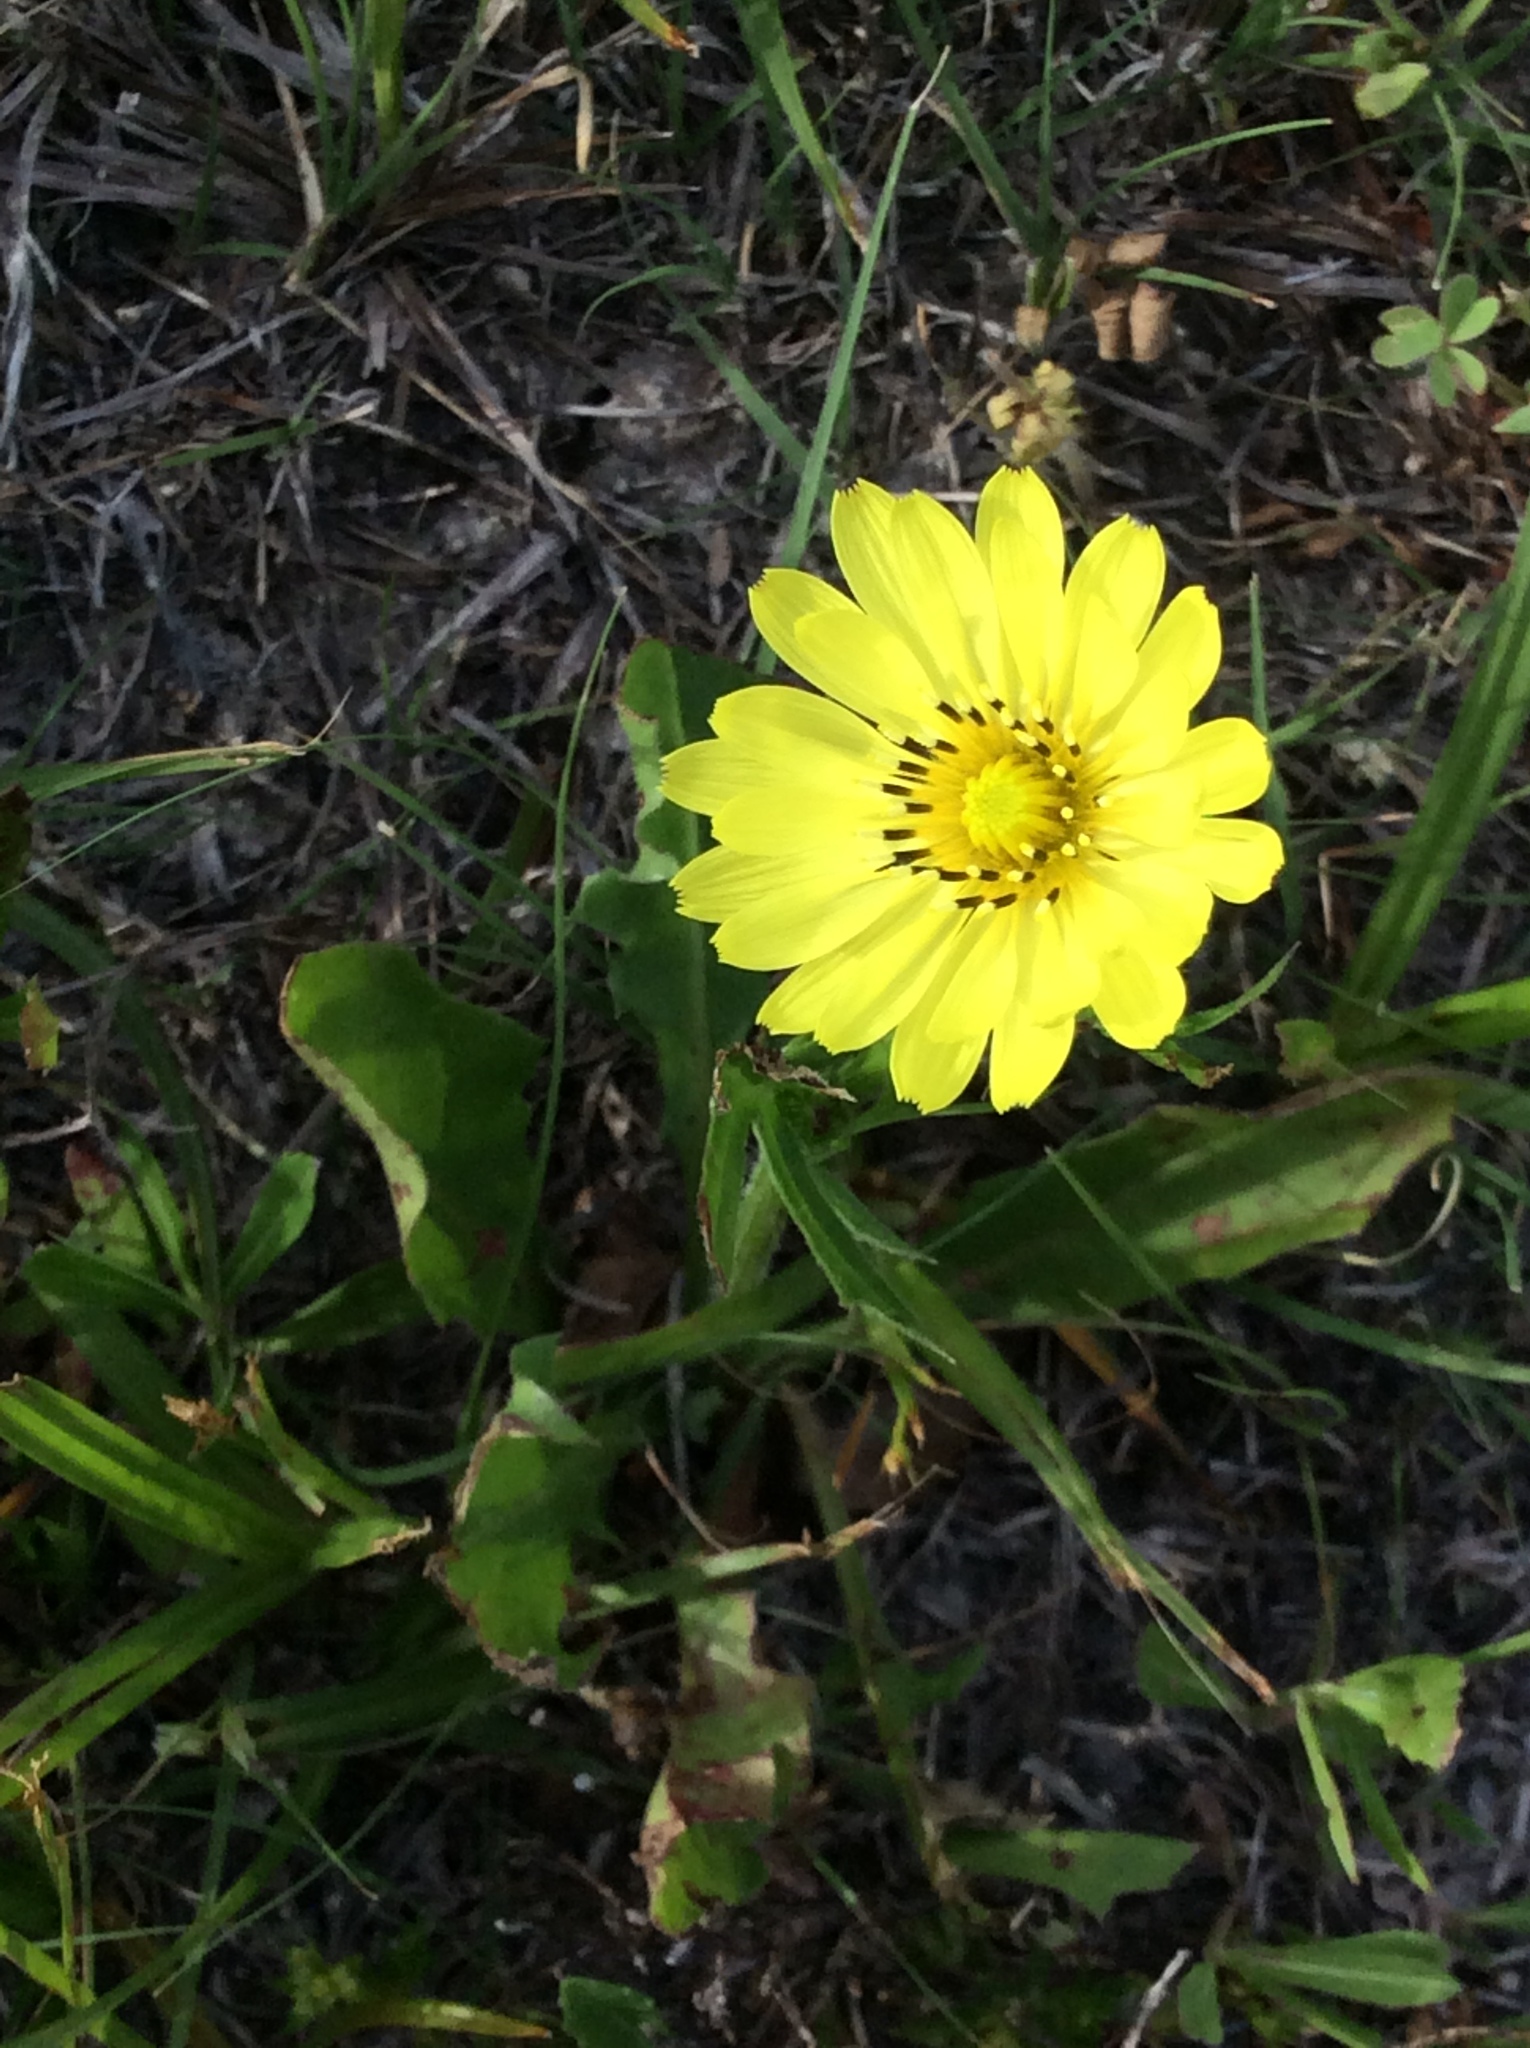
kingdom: Plantae
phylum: Tracheophyta
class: Magnoliopsida
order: Asterales
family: Asteraceae
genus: Pyrrhopappus
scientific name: Pyrrhopappus pauciflorus
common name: Texas false dandelion
